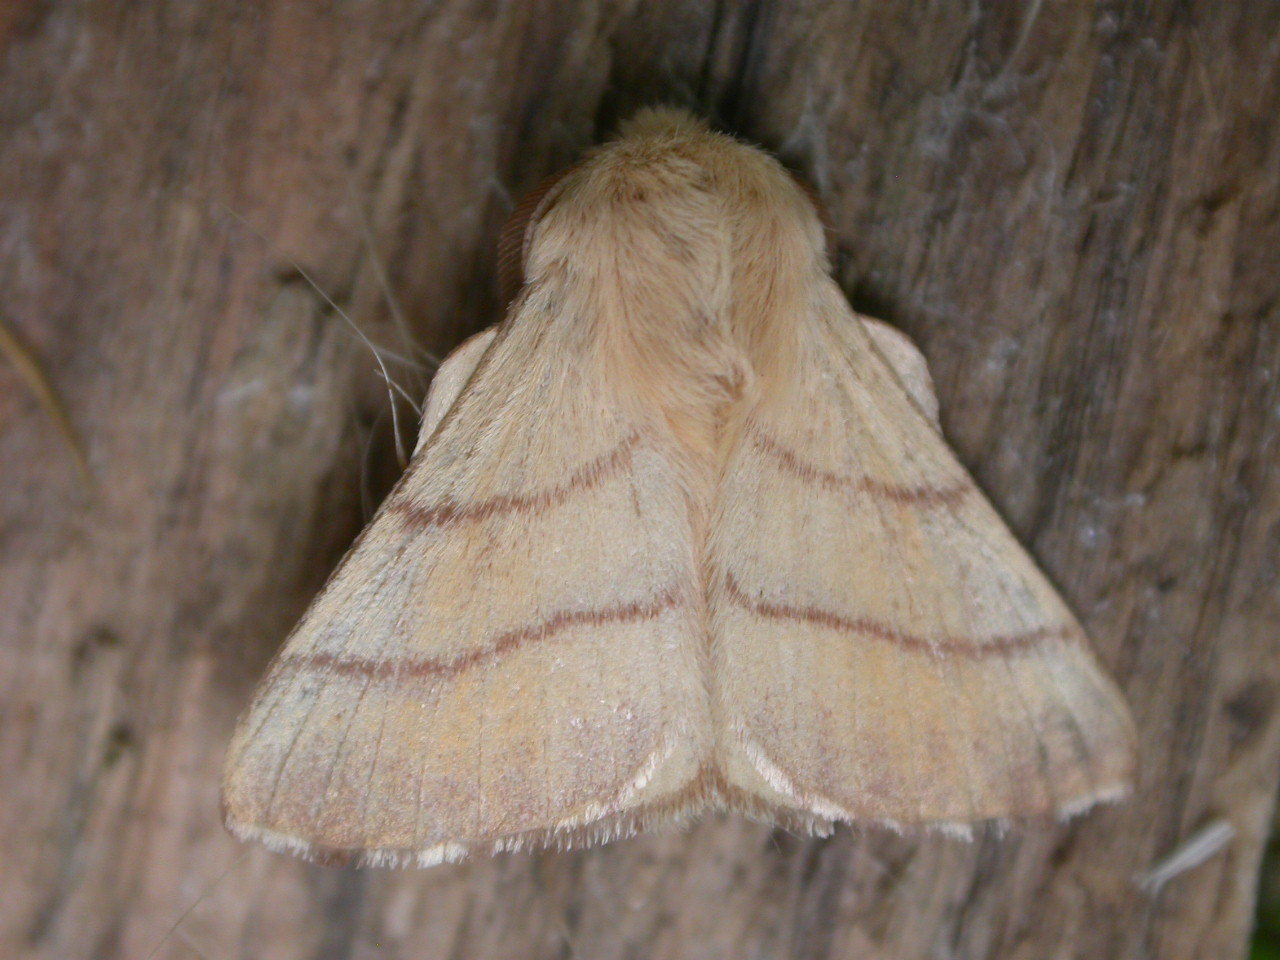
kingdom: Animalia
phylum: Arthropoda
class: Insecta
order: Lepidoptera
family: Lasiocampidae
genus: Malacosoma
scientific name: Malacosoma neustria
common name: The lackey
